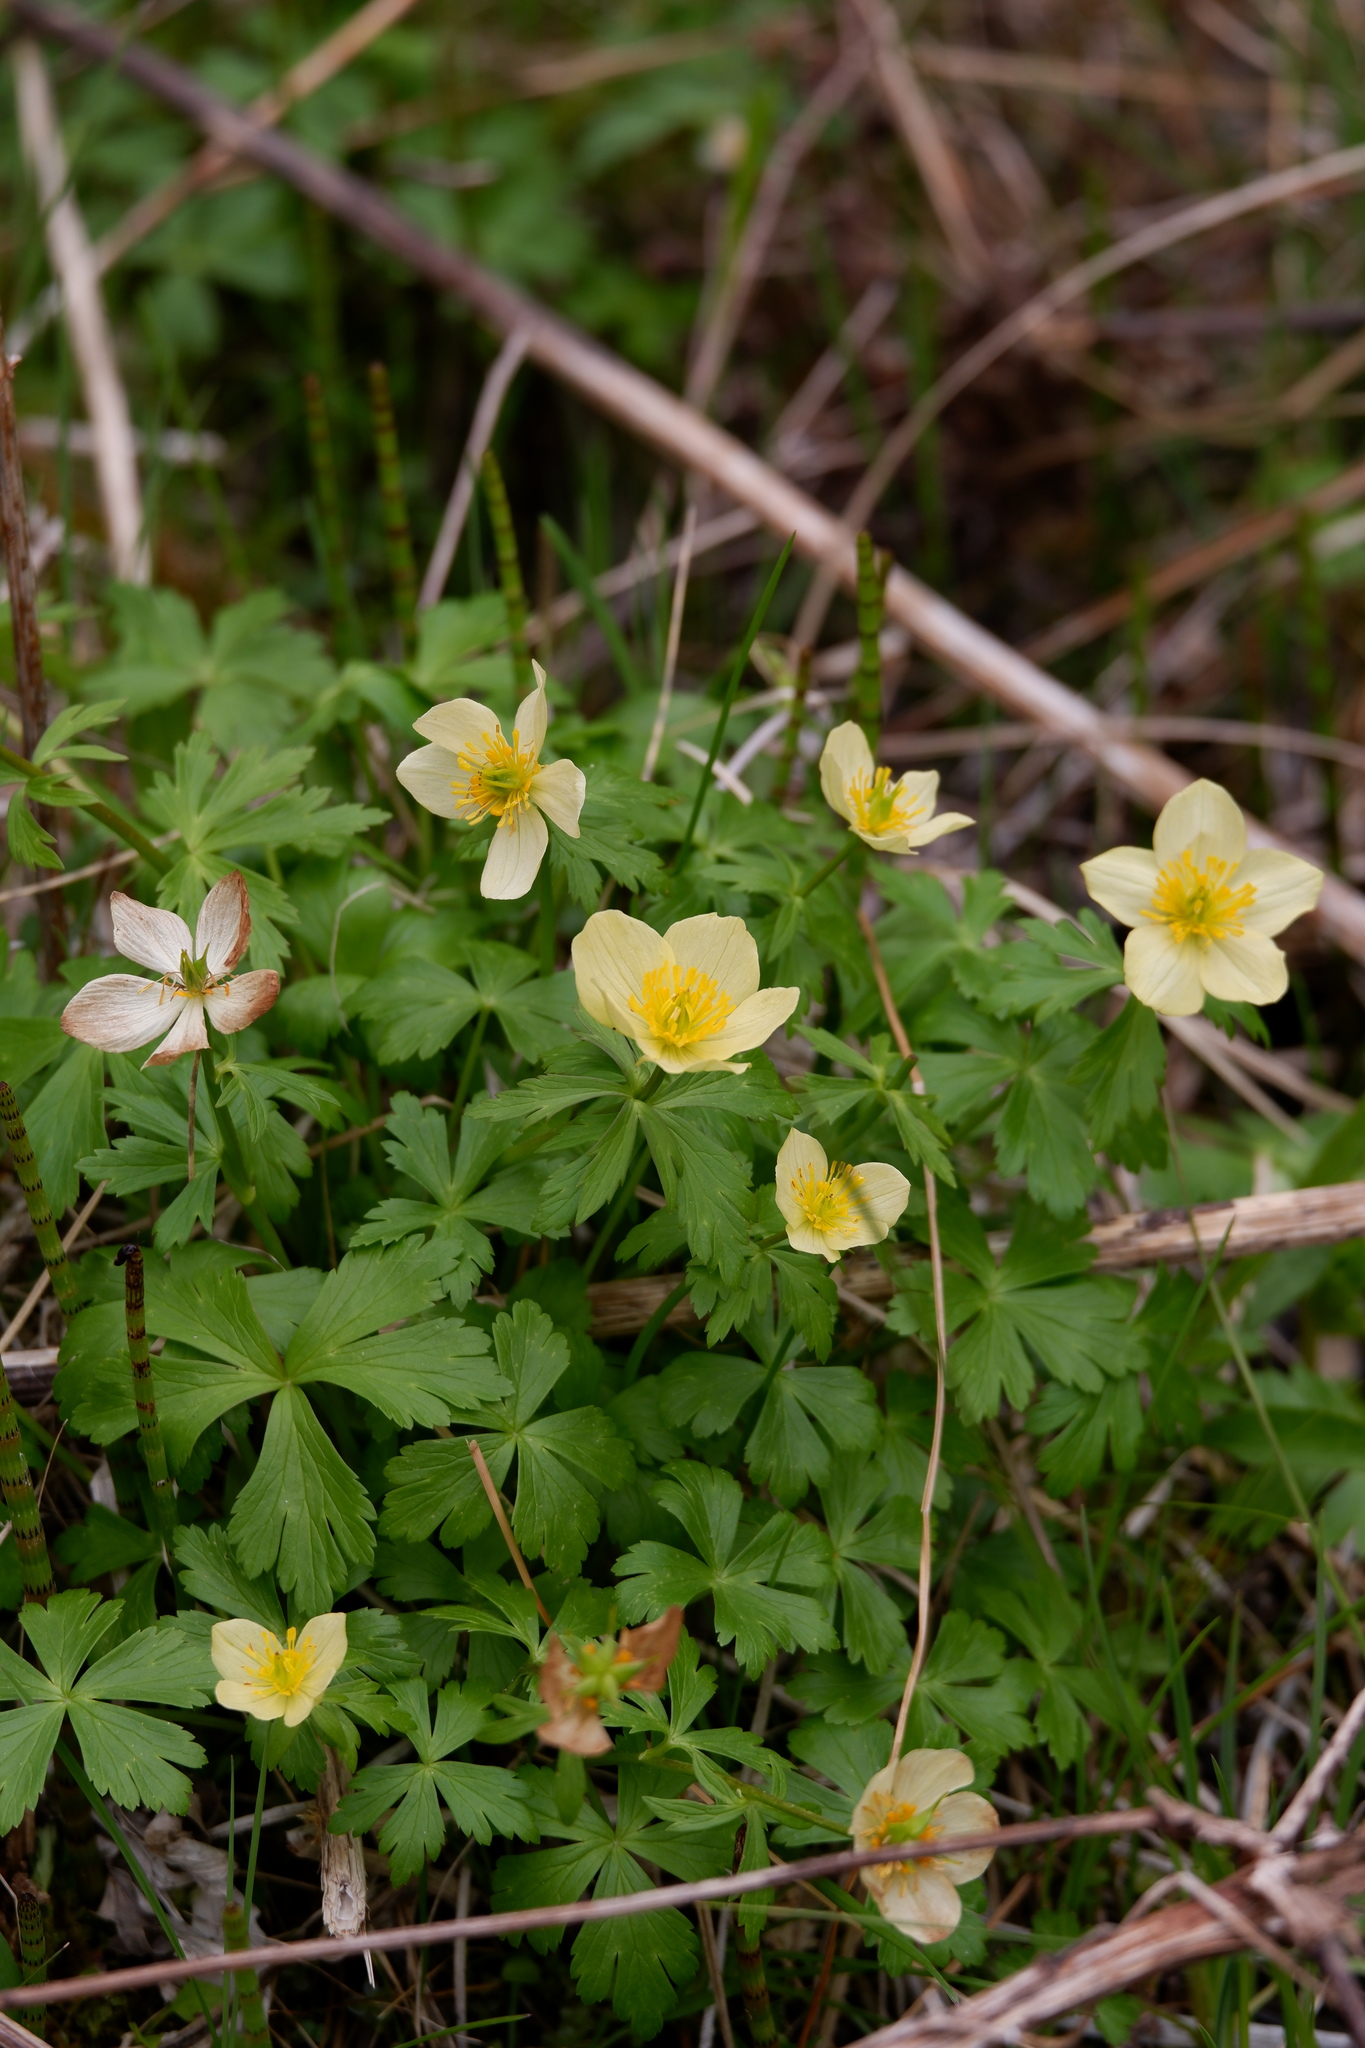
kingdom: Plantae
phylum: Tracheophyta
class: Magnoliopsida
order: Ranunculales
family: Ranunculaceae
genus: Trollius
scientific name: Trollius laxus
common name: American globeflower
